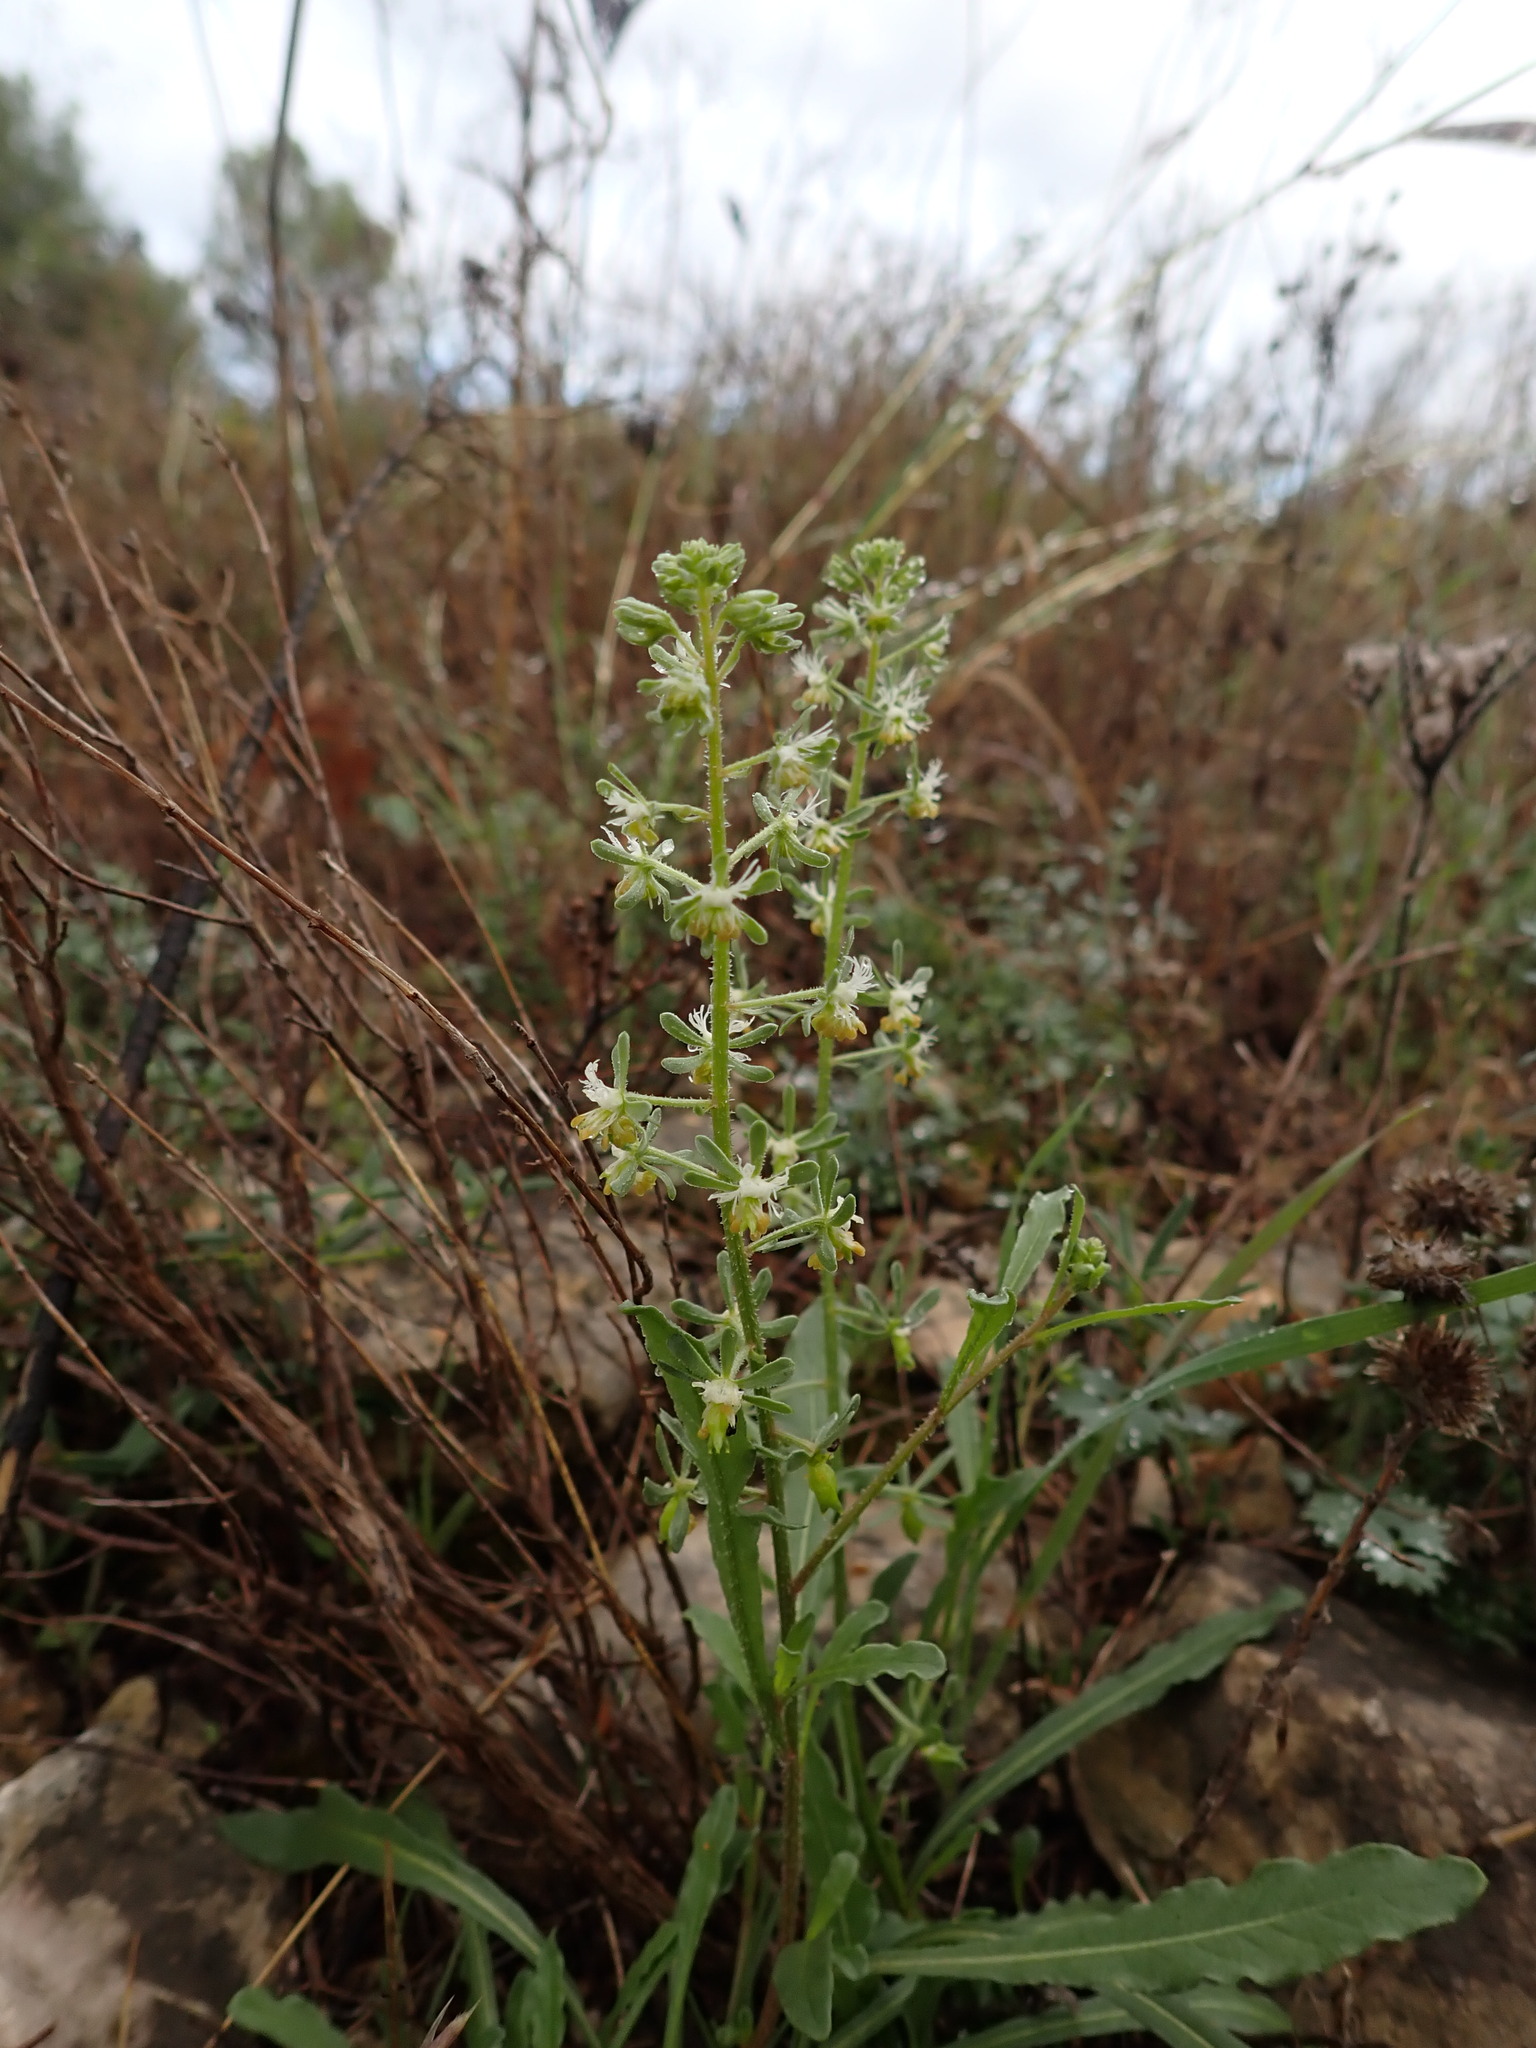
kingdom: Plantae
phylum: Tracheophyta
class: Magnoliopsida
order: Brassicales
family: Resedaceae
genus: Reseda
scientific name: Reseda phyteuma
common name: Corn mignonette
